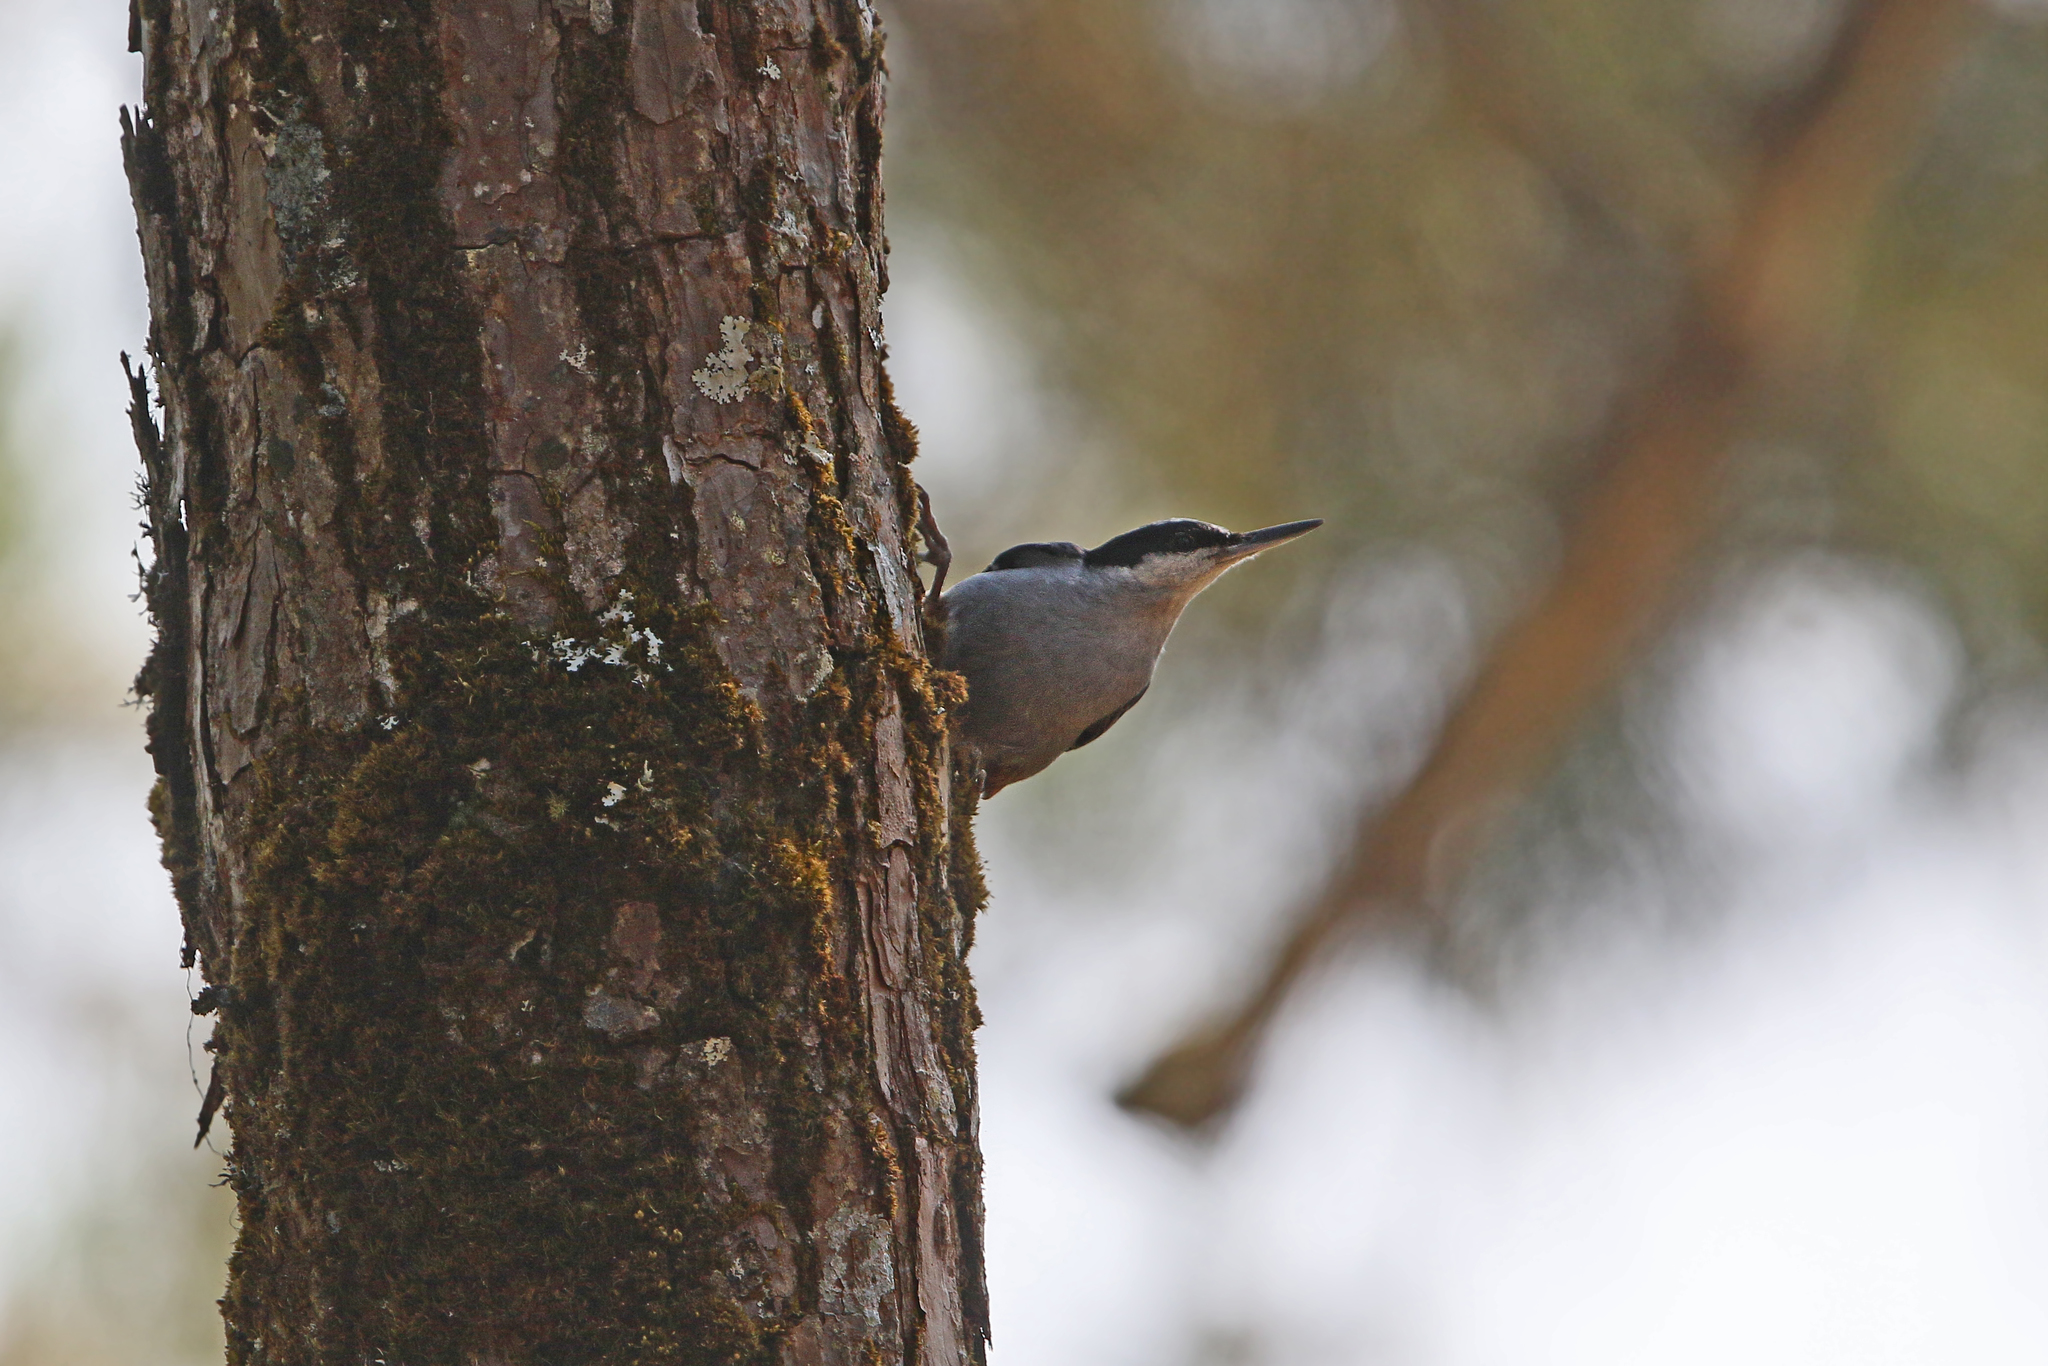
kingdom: Animalia
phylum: Chordata
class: Aves
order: Passeriformes
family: Sittidae
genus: Sitta
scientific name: Sitta magna
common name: Giant nuthatch
